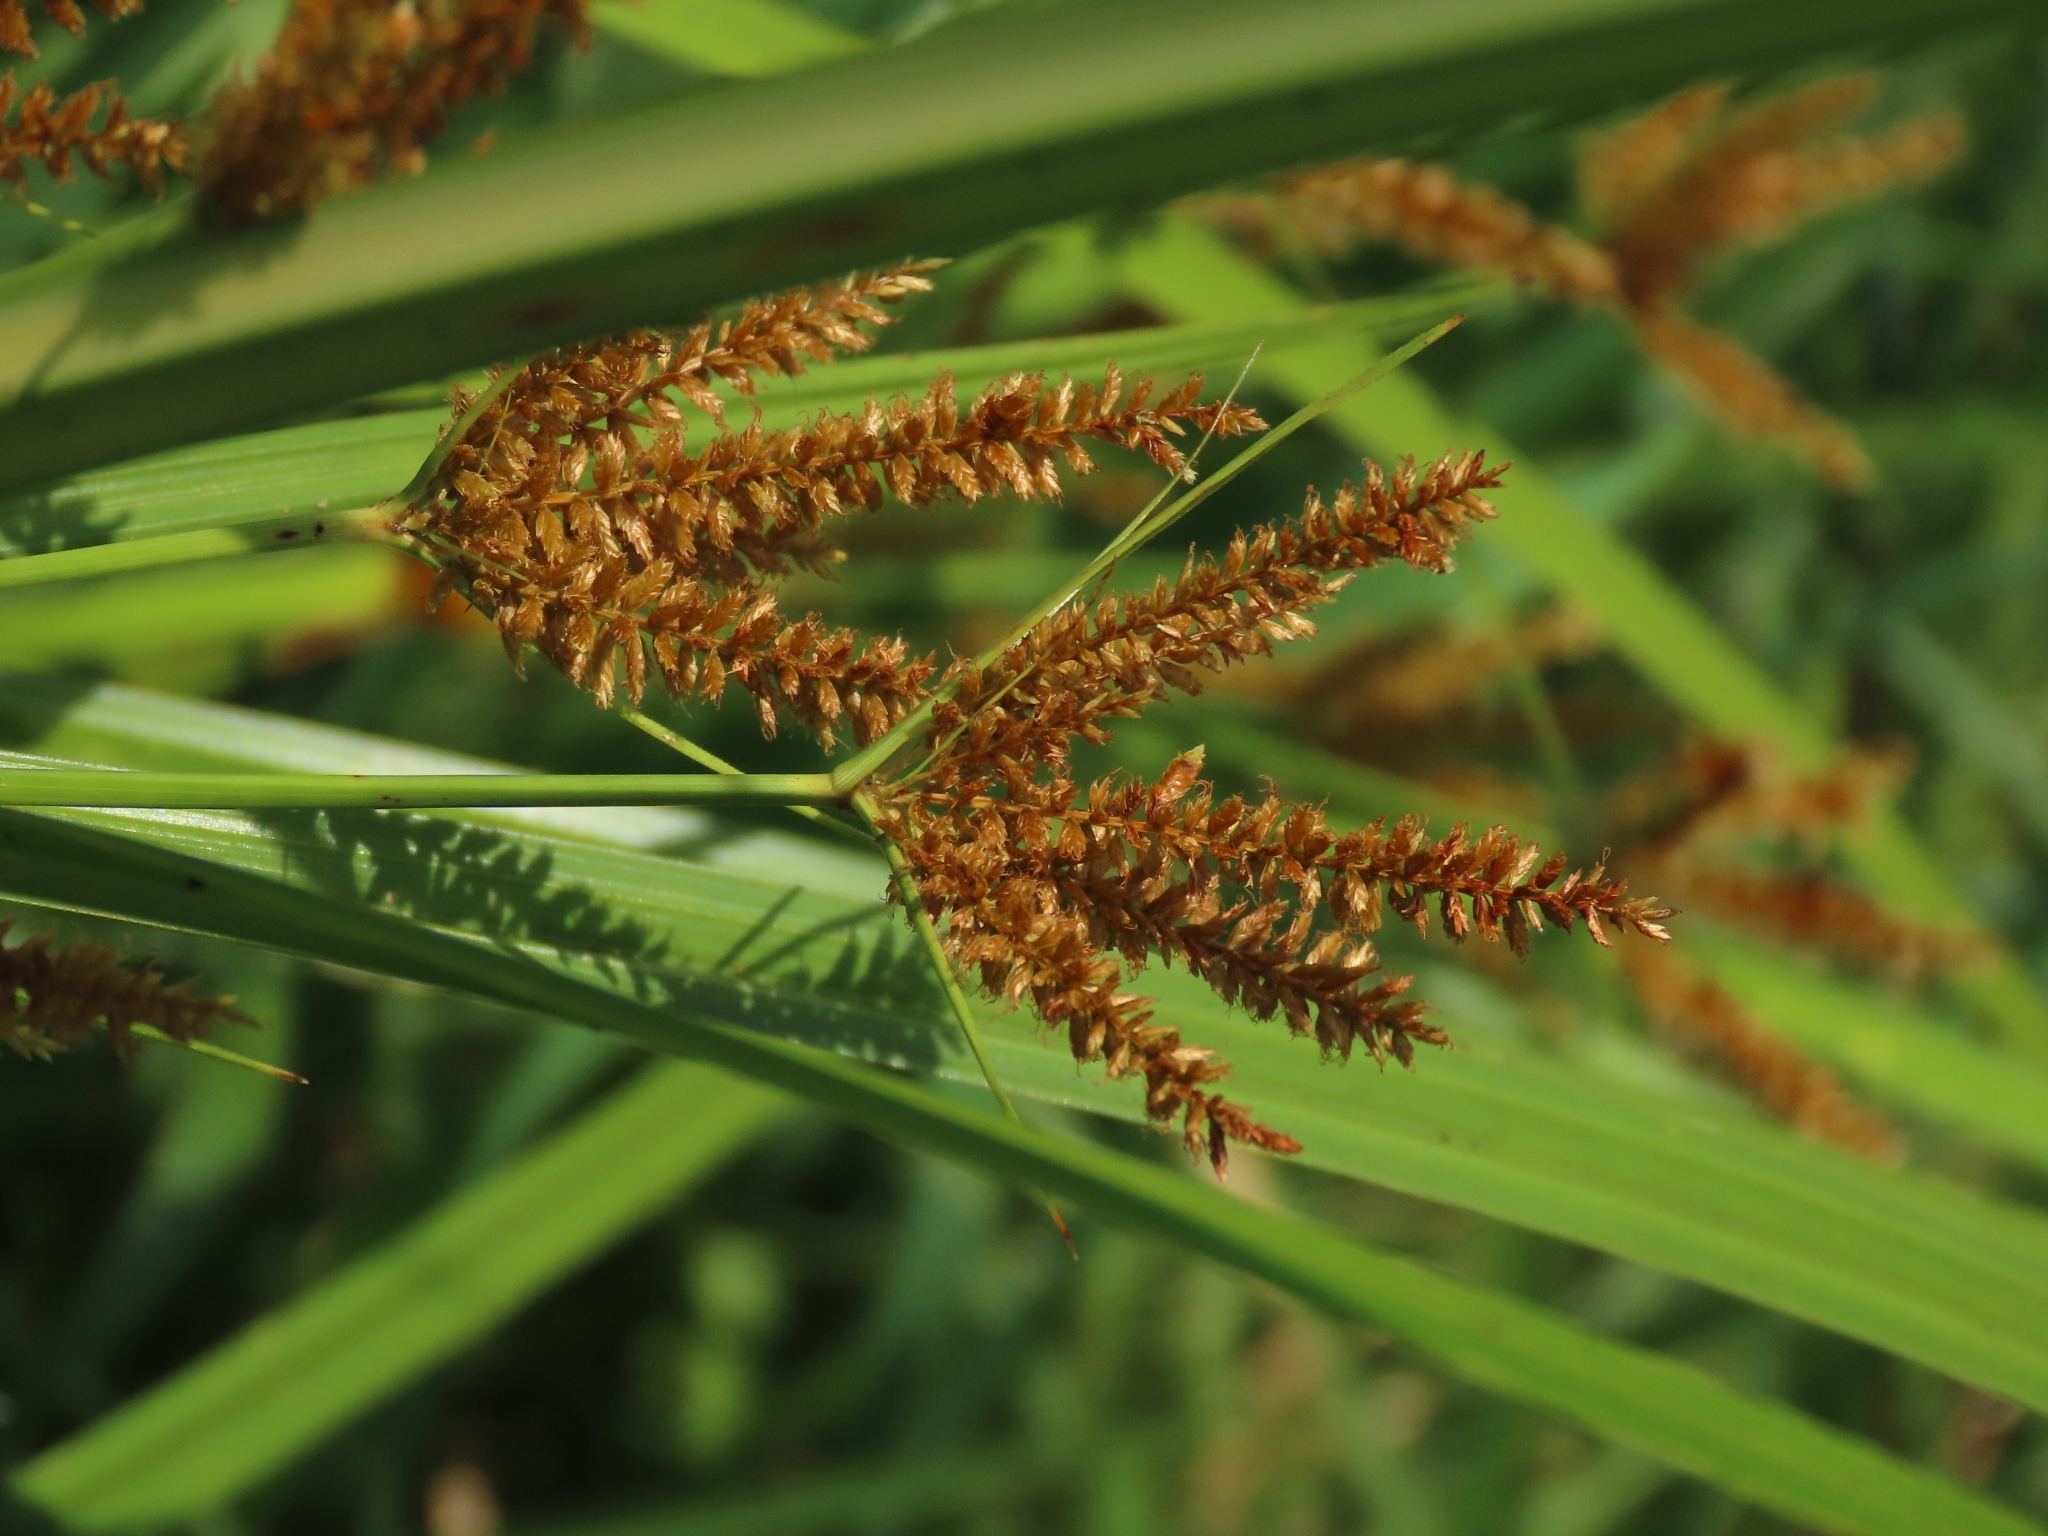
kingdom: Plantae
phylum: Tracheophyta
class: Liliopsida
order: Poales
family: Cyperaceae
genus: Cyperus
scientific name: Cyperus exaltatus
